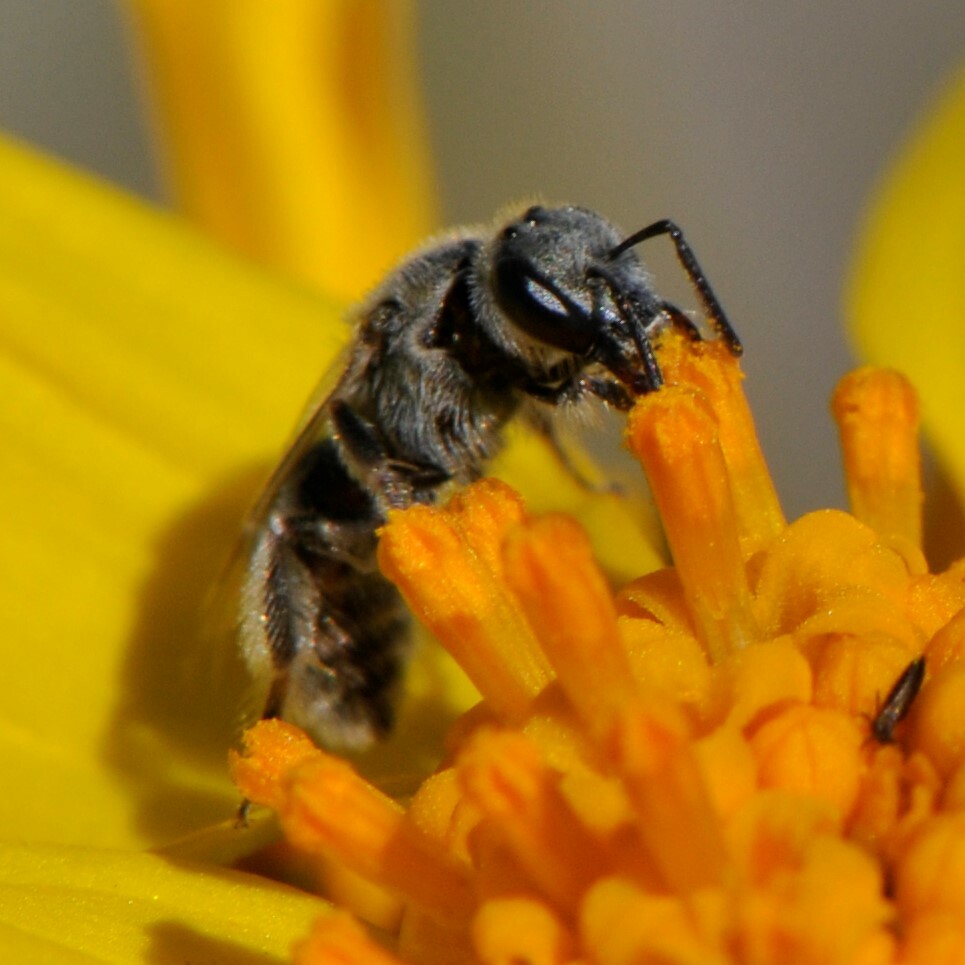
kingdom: Animalia
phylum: Arthropoda
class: Insecta
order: Hymenoptera
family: Halictidae
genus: Dialictus
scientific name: Dialictus
